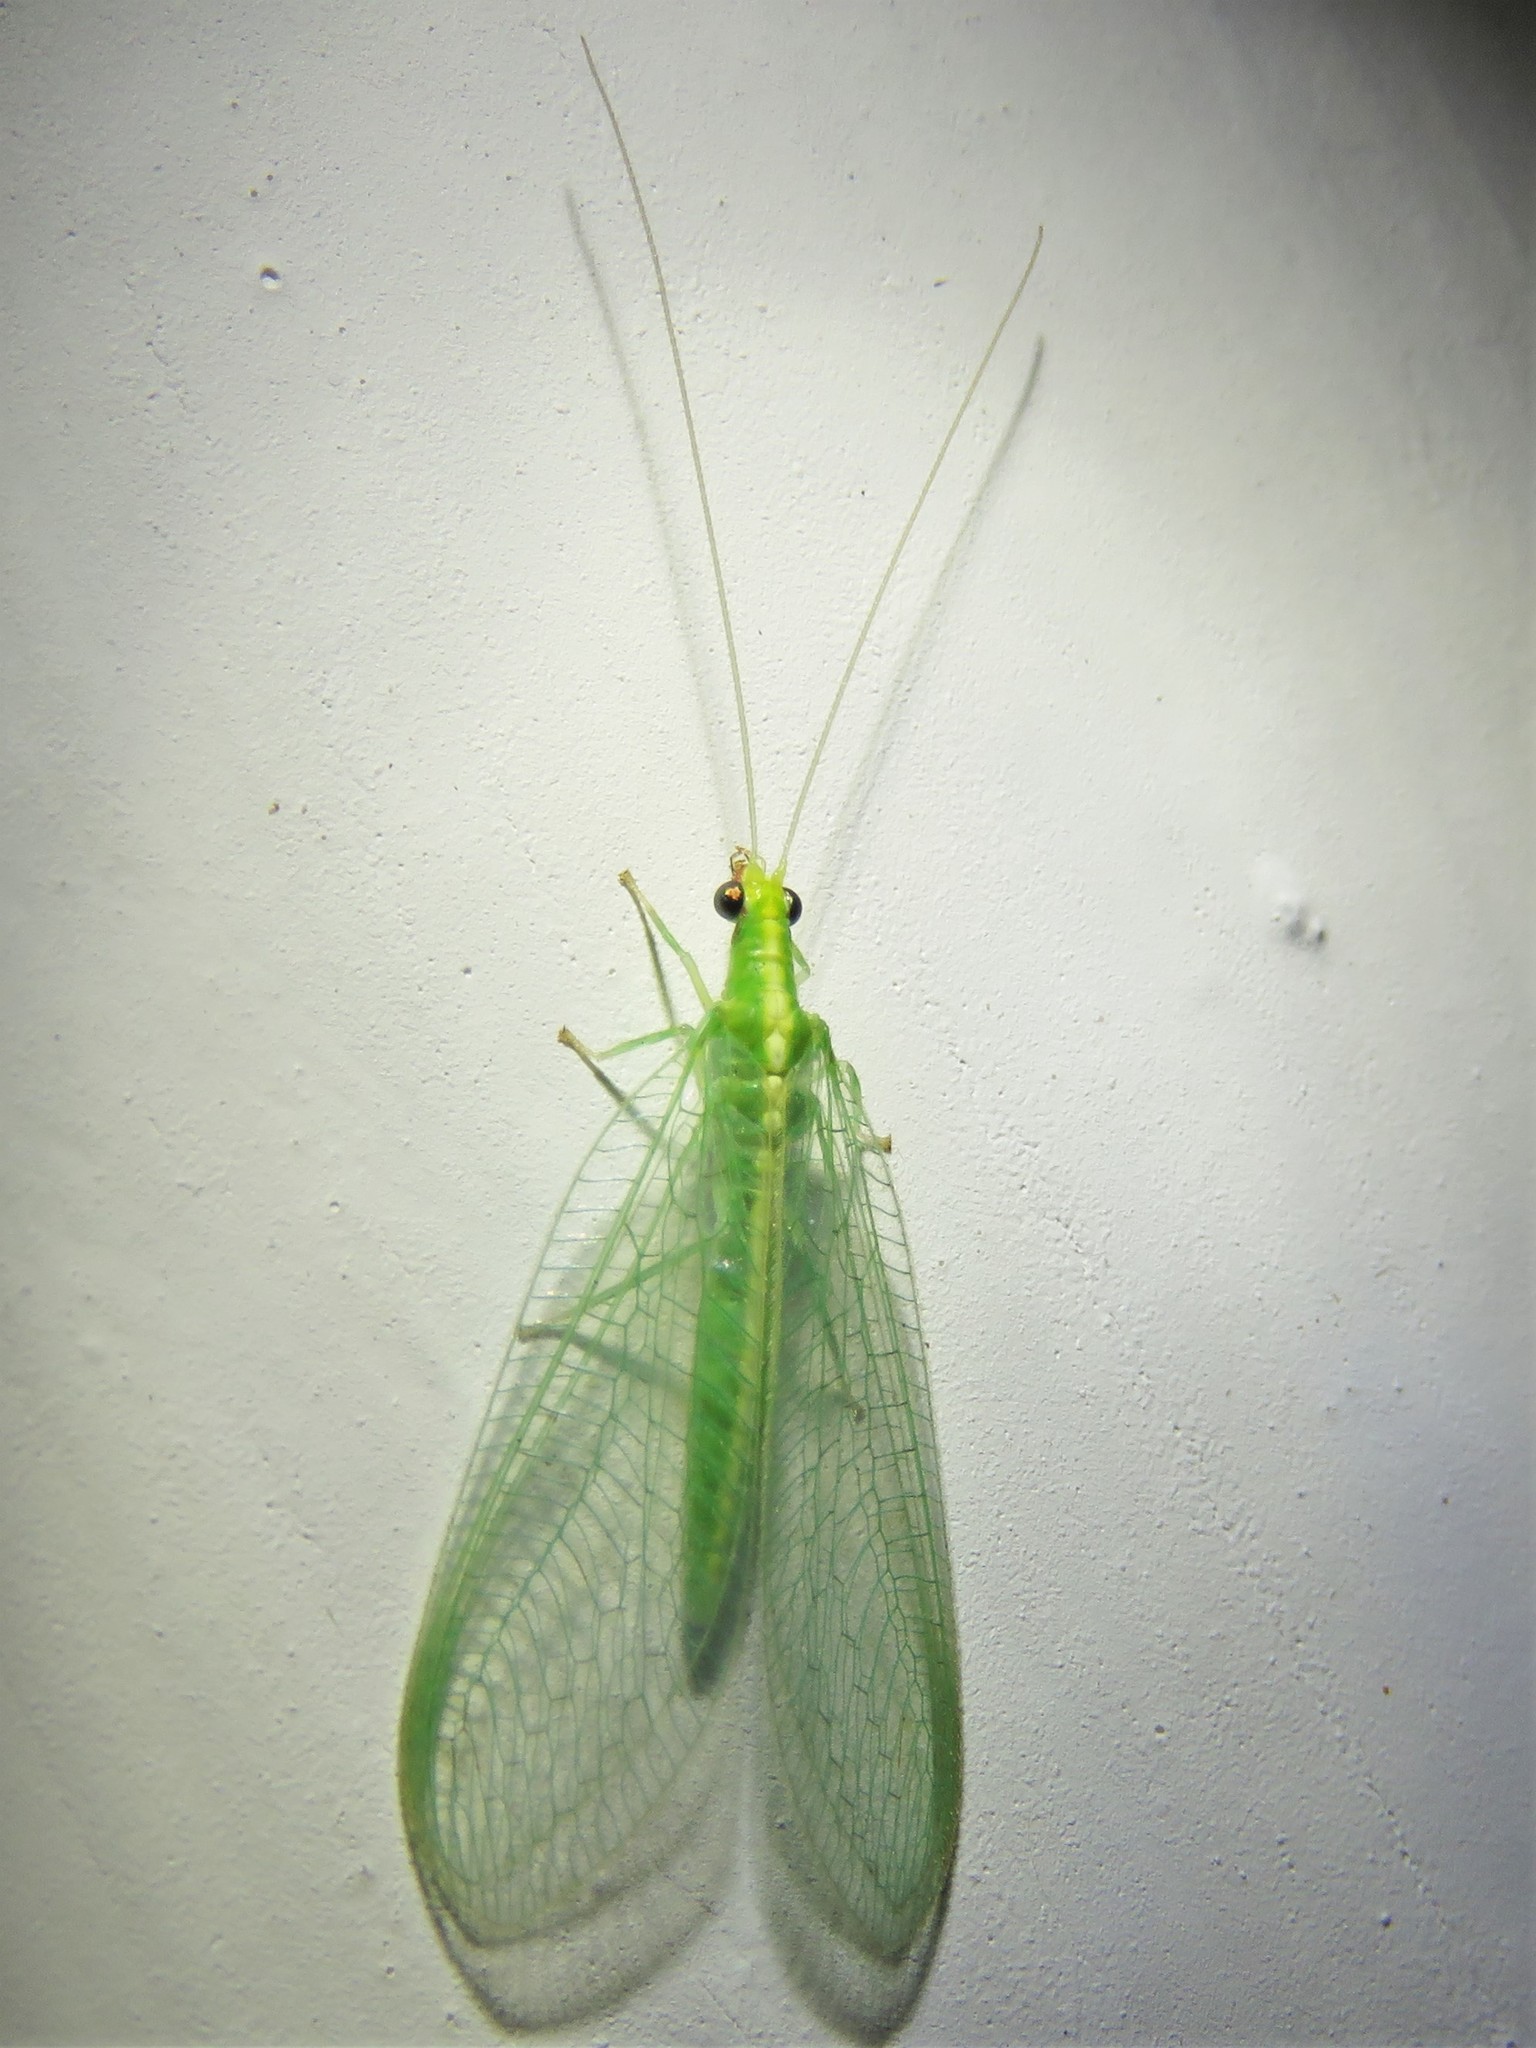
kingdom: Animalia
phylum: Arthropoda
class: Insecta
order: Neuroptera
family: Chrysopidae
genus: Chrysoperla
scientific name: Chrysoperla rufilabris
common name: Red-lipped green lacewing
